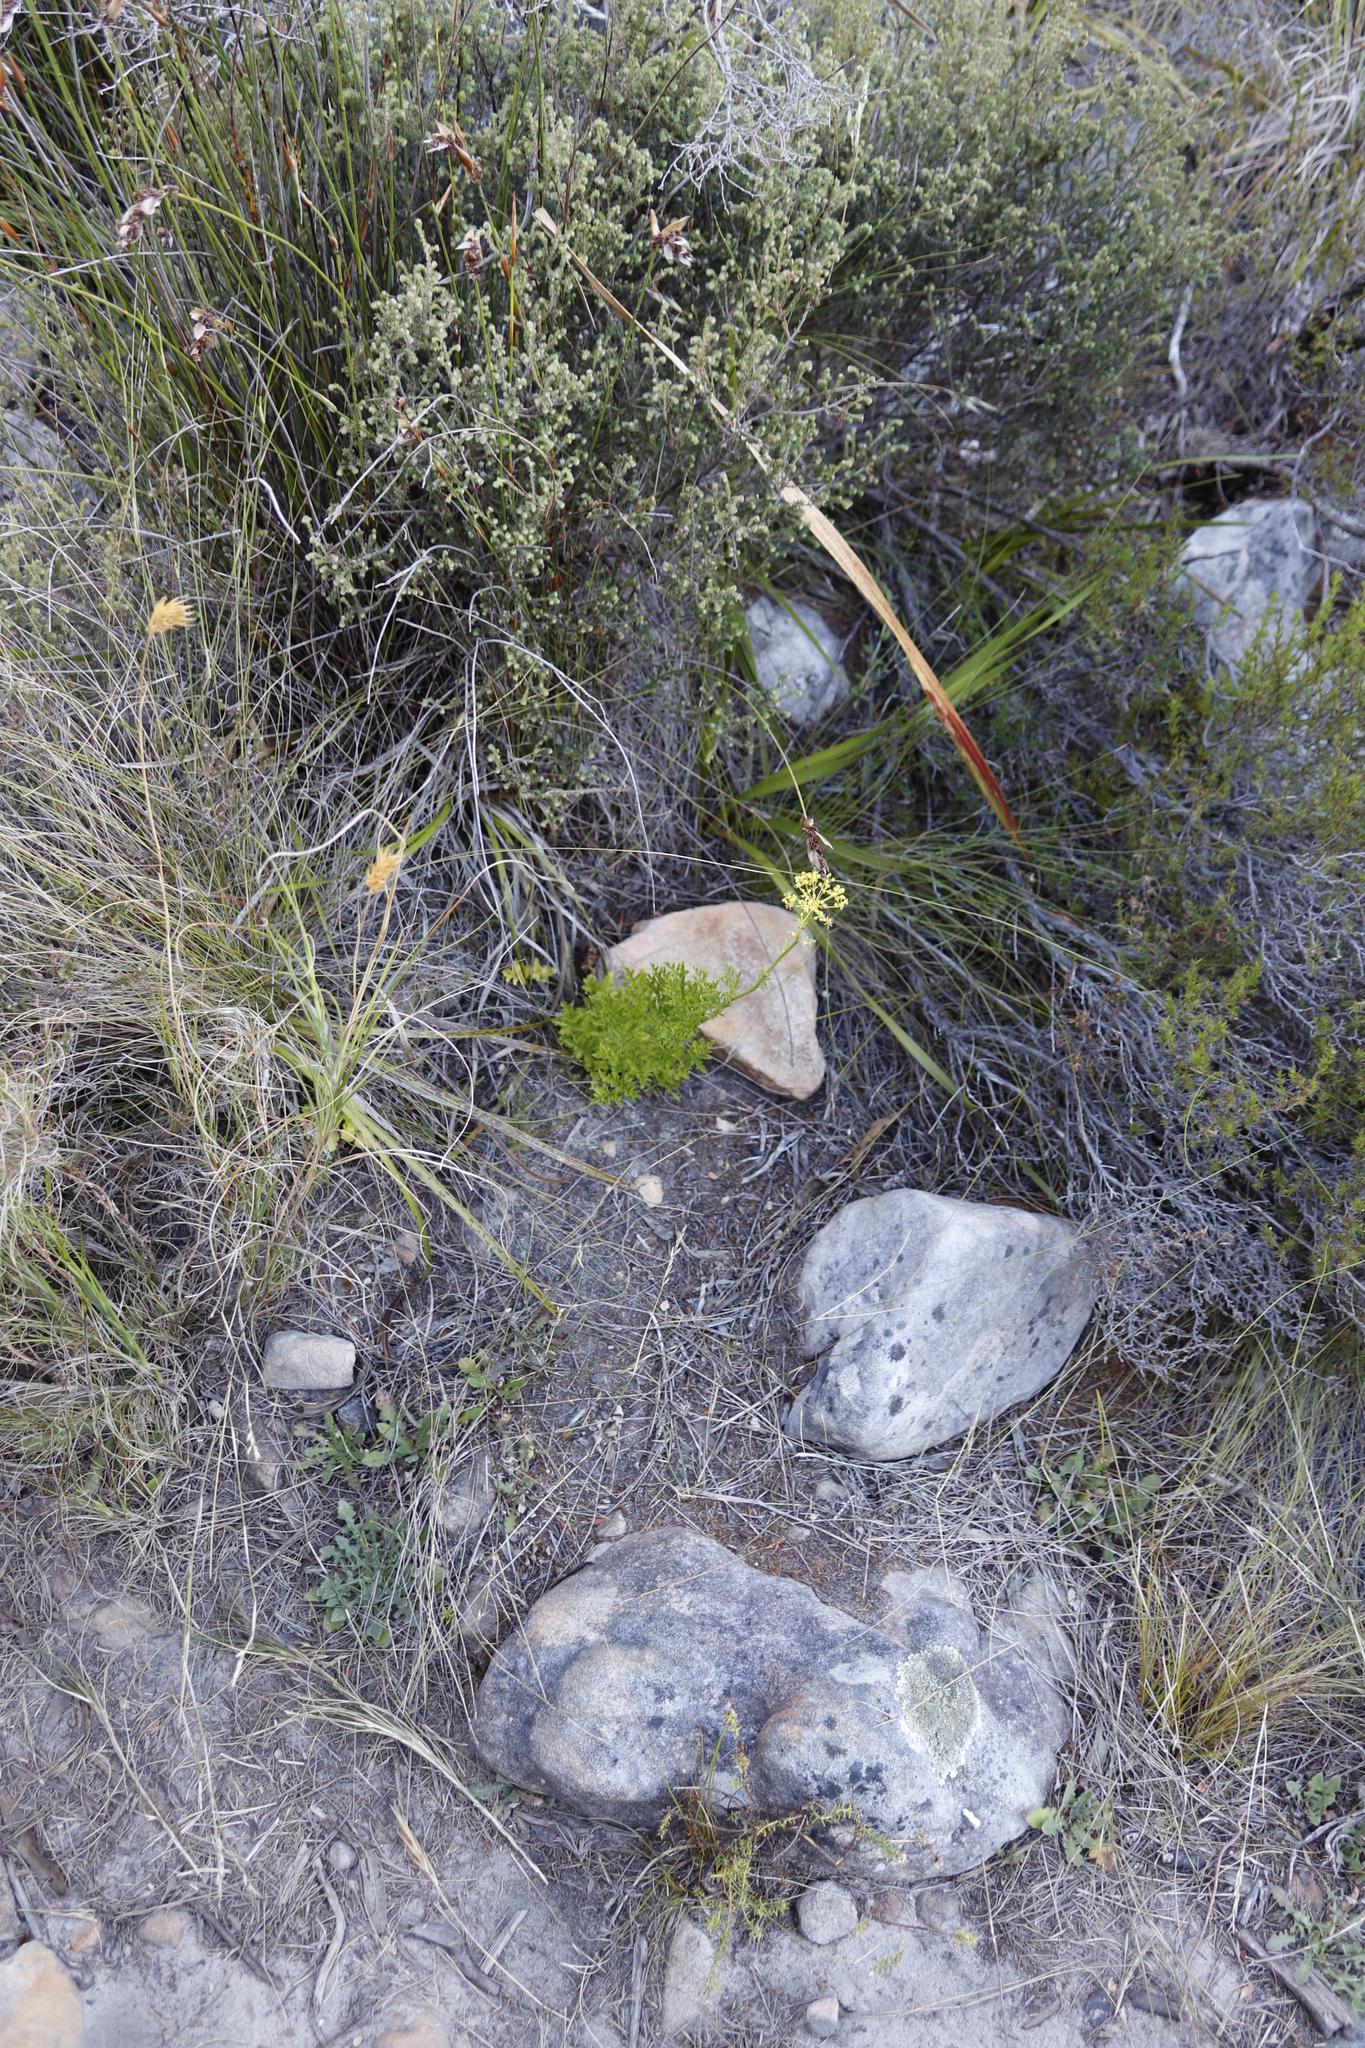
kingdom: Plantae
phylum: Tracheophyta
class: Magnoliopsida
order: Apiales
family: Apiaceae
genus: Glia
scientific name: Glia prolifera
